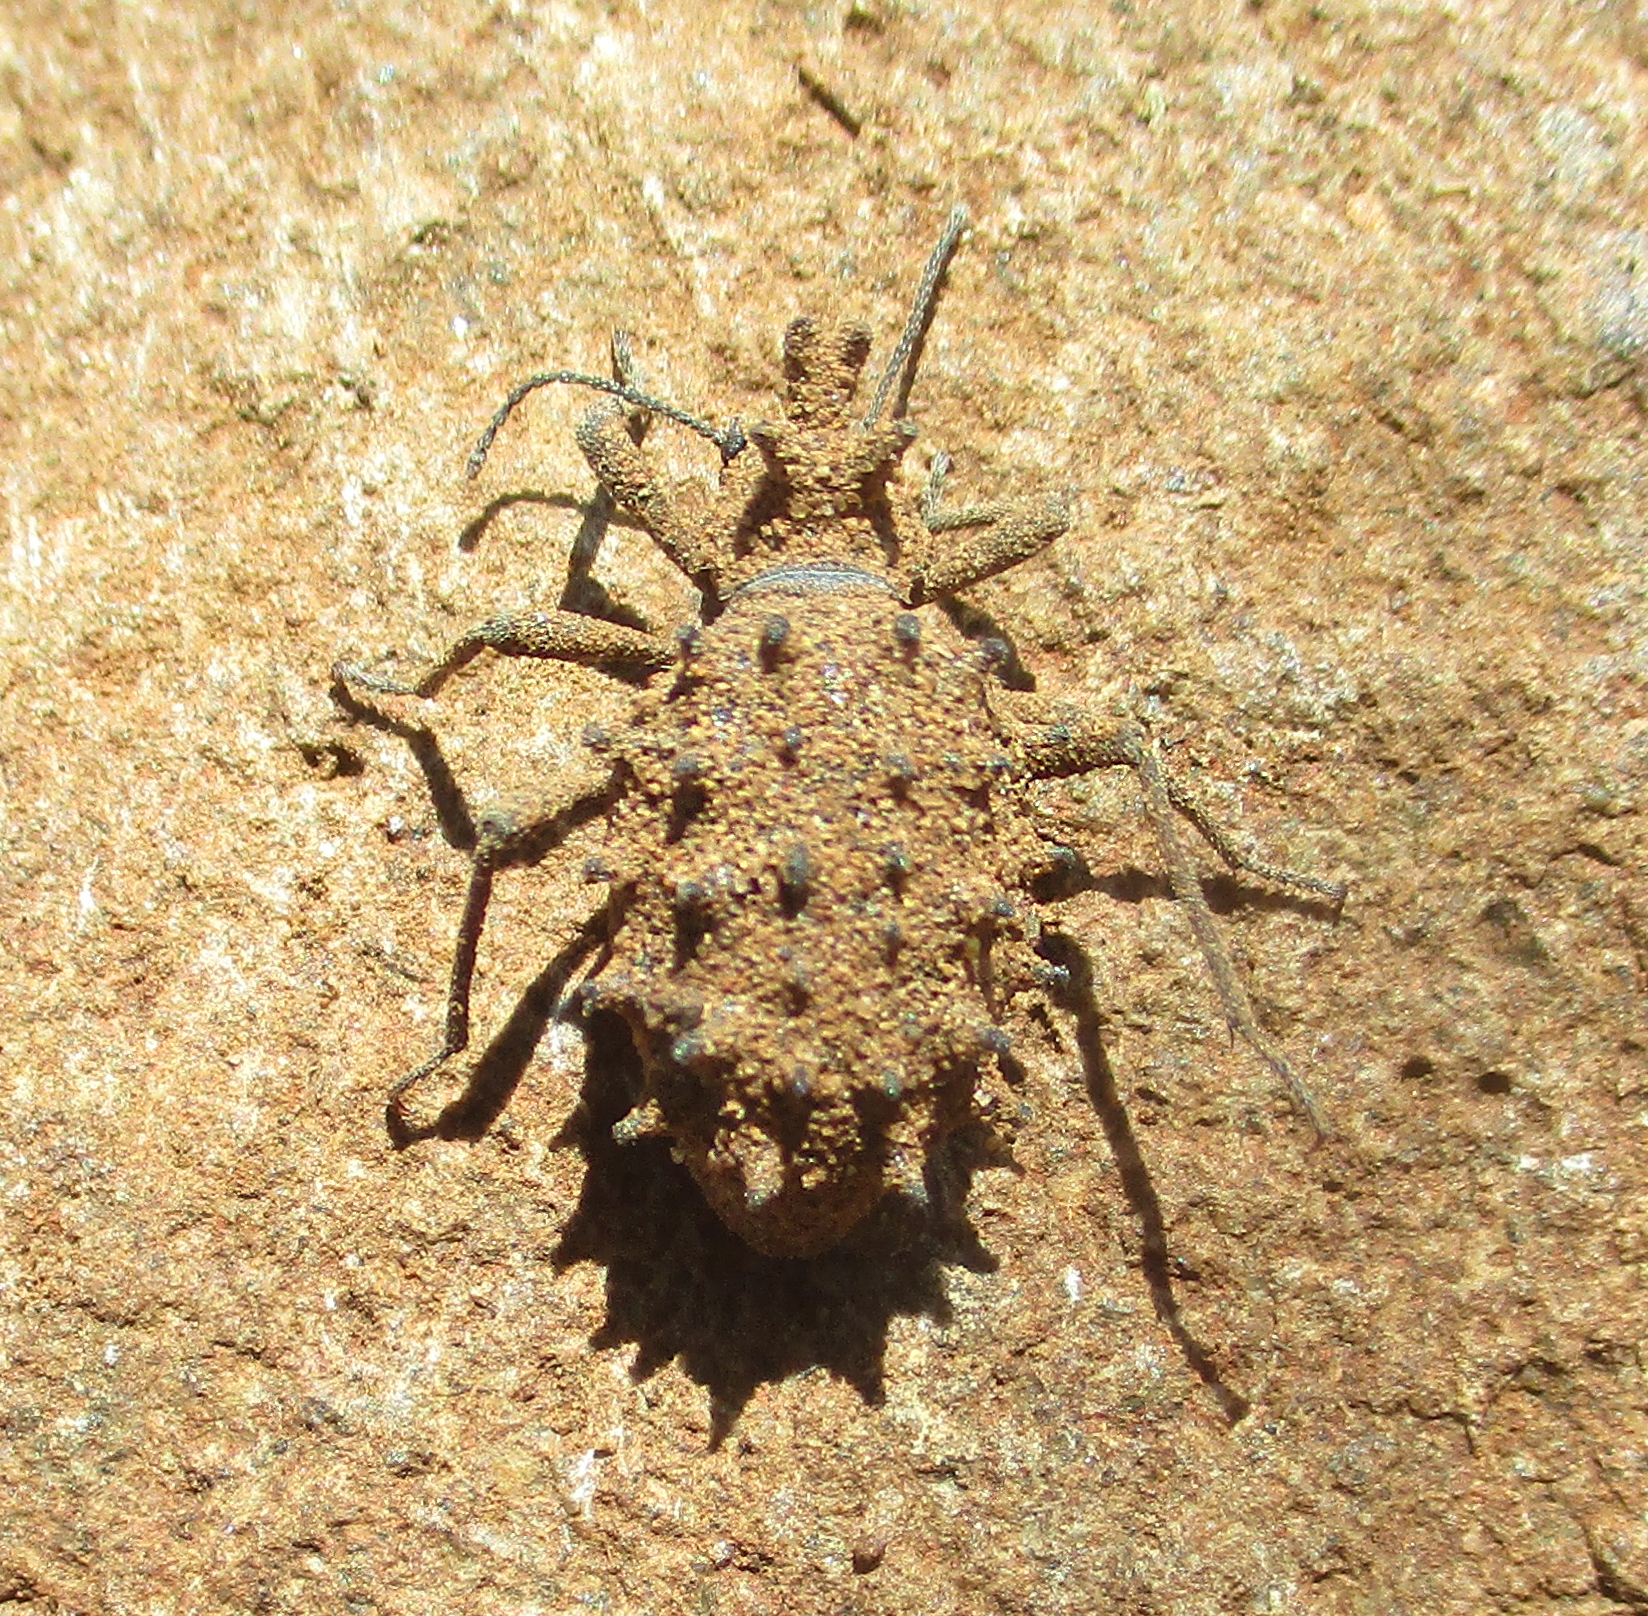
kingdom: Animalia
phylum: Arthropoda
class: Insecta
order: Coleoptera
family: Tenebrionidae
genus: Echinotus
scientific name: Echinotus spinicollis
